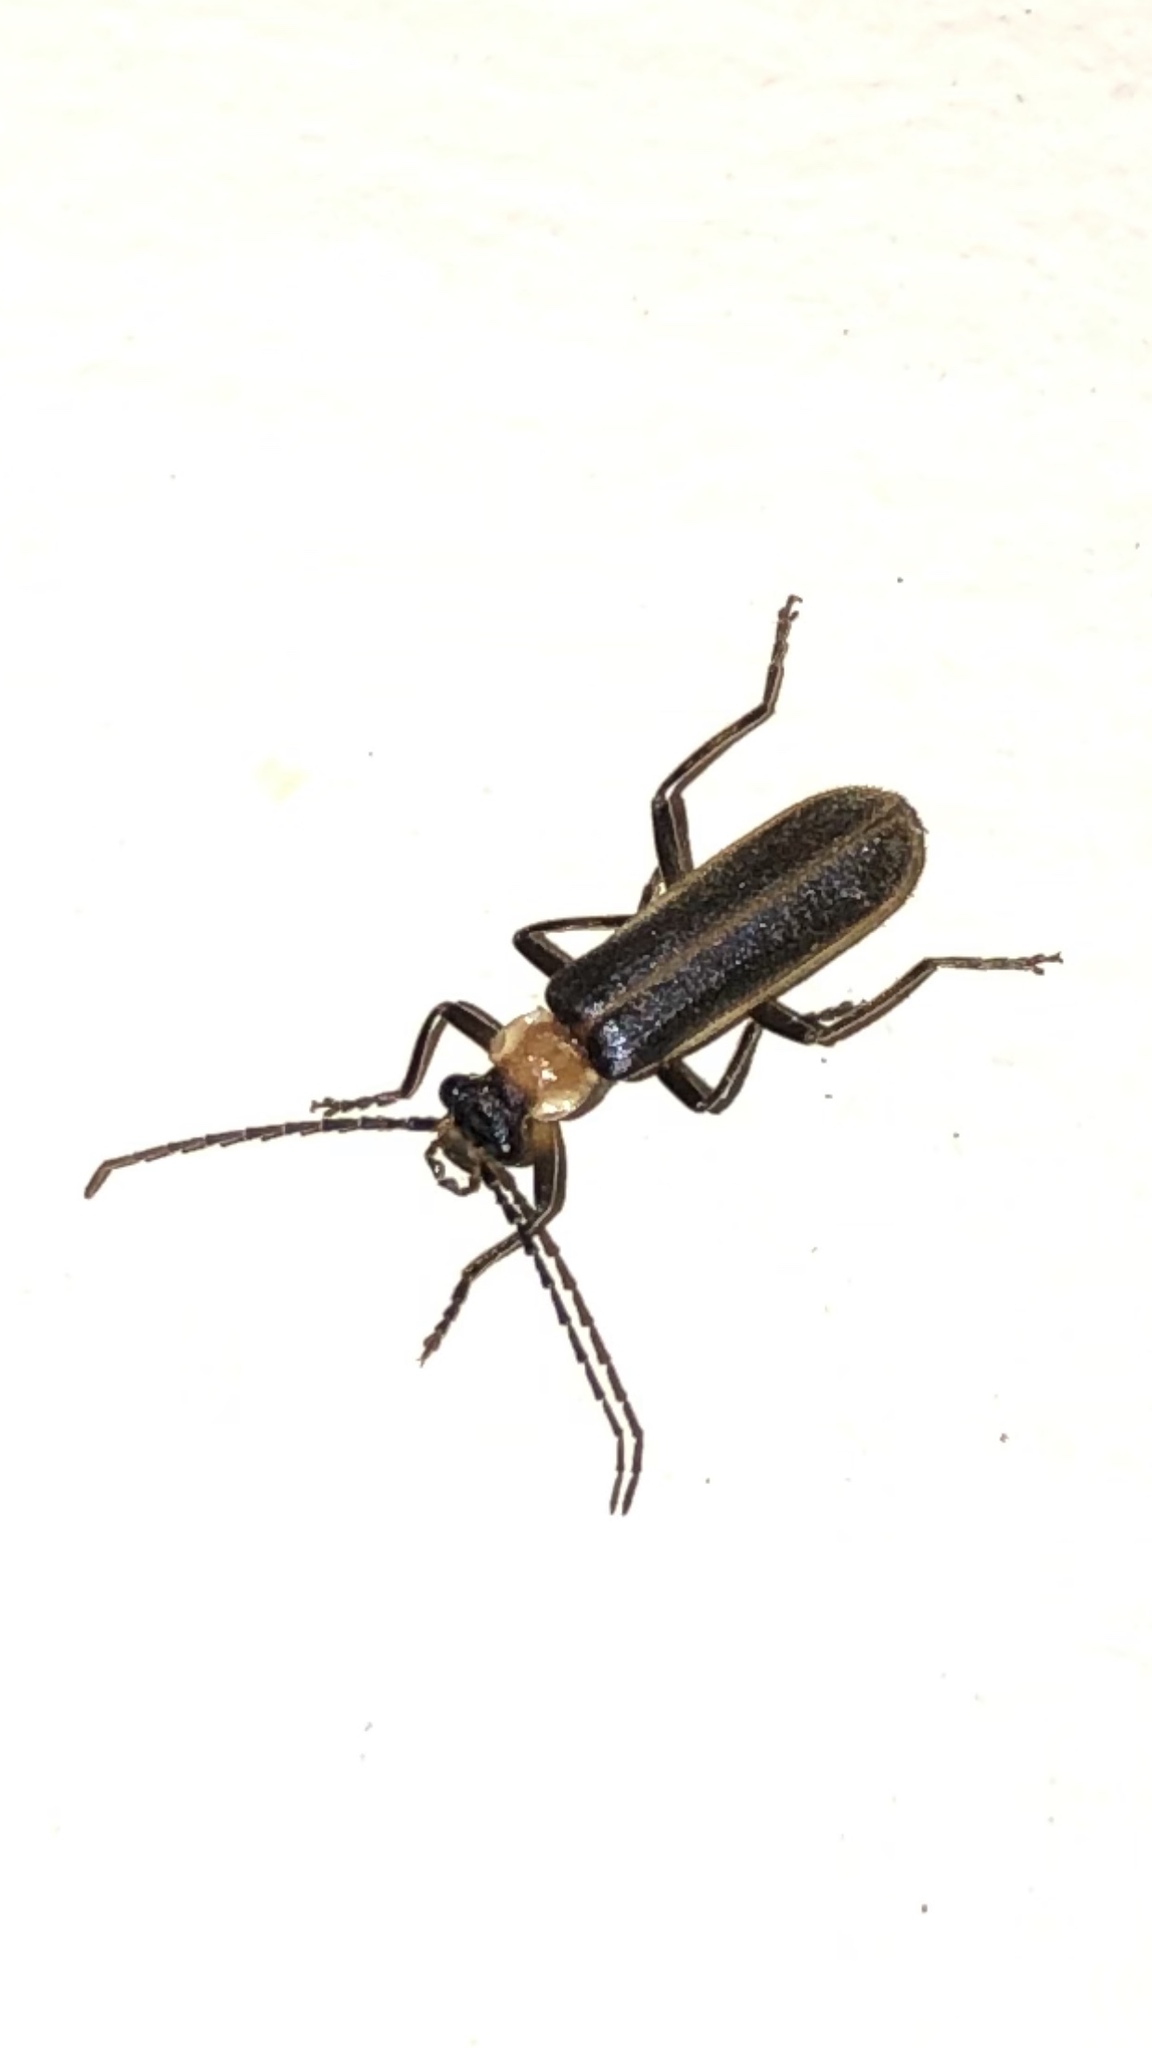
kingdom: Animalia
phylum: Arthropoda
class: Insecta
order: Coleoptera
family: Cantharidae
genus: Podabrus
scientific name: Podabrus flavicollis
